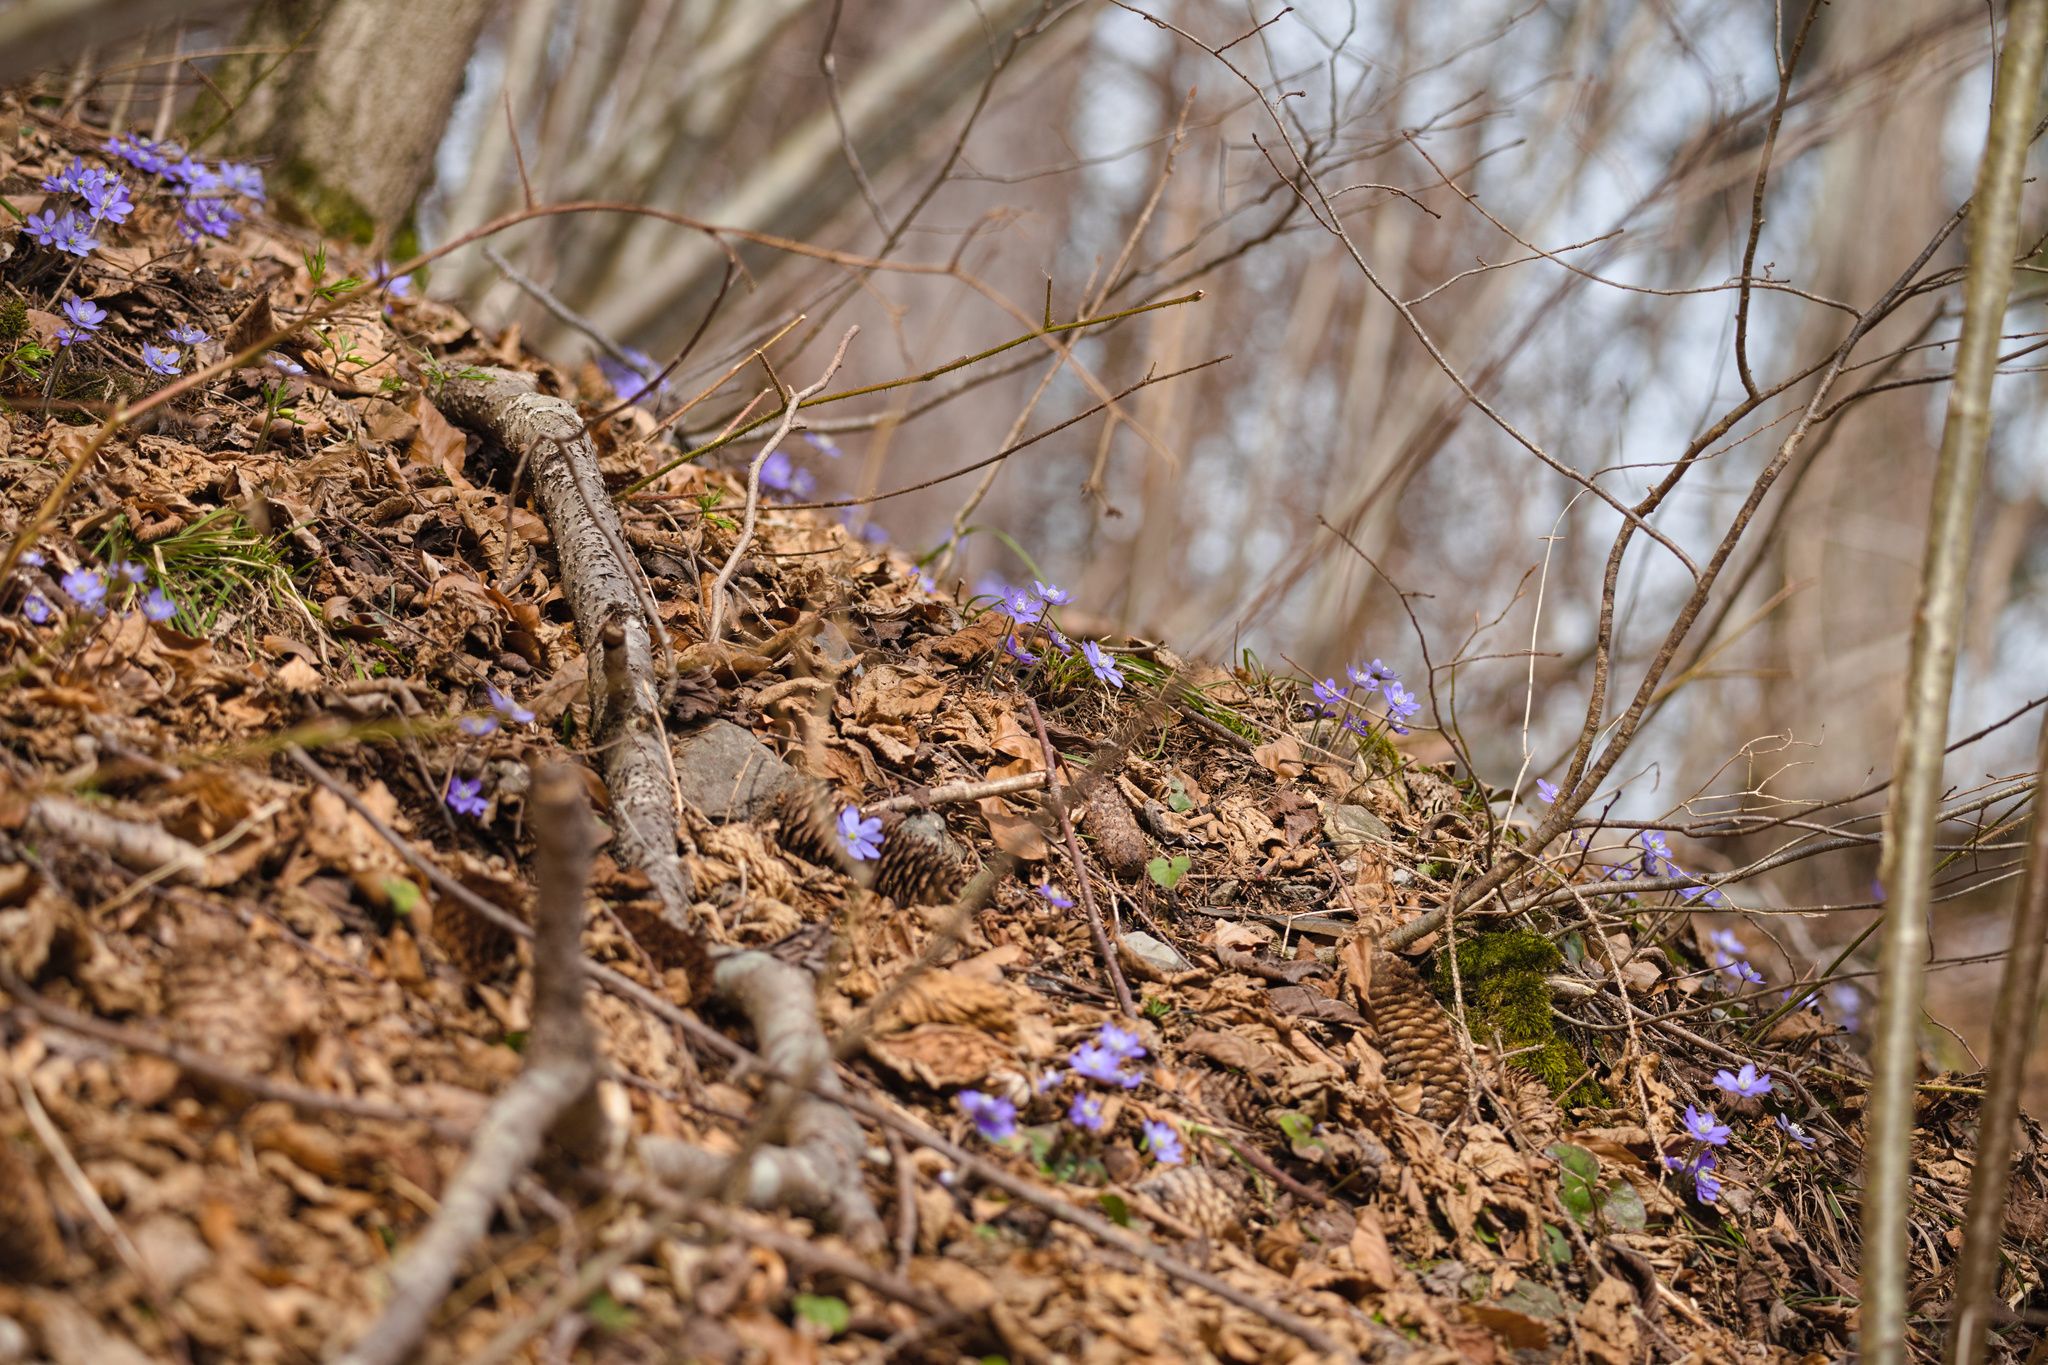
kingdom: Plantae
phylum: Tracheophyta
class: Magnoliopsida
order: Ranunculales
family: Ranunculaceae
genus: Hepatica
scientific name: Hepatica nobilis
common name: Liverleaf
